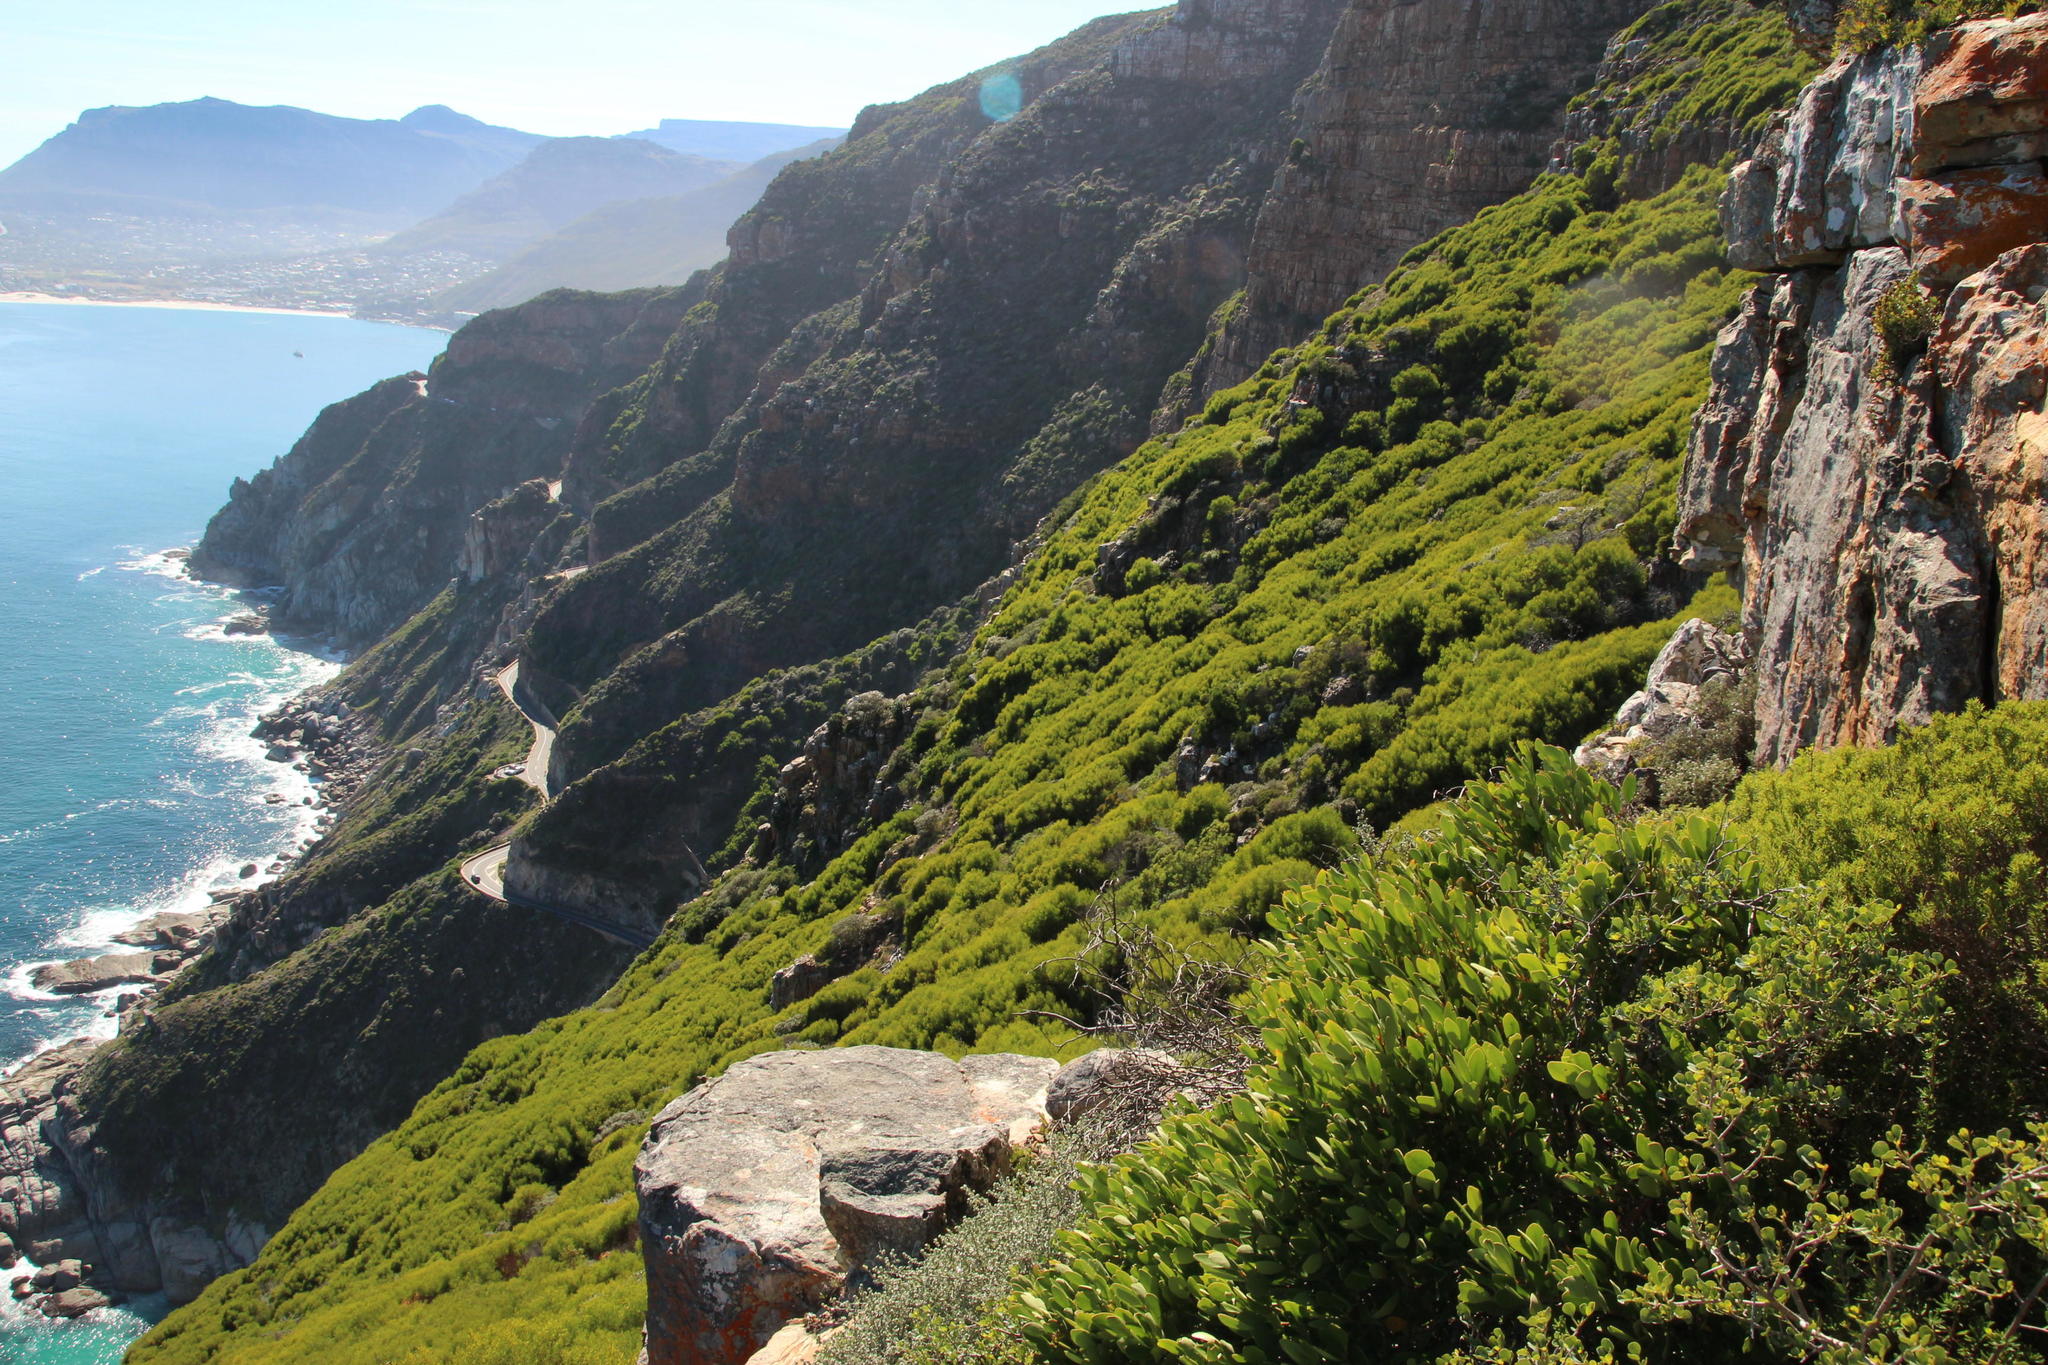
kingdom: Plantae
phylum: Tracheophyta
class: Magnoliopsida
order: Fabales
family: Fabaceae
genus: Acacia
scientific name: Acacia cyclops
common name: Coastal wattle
